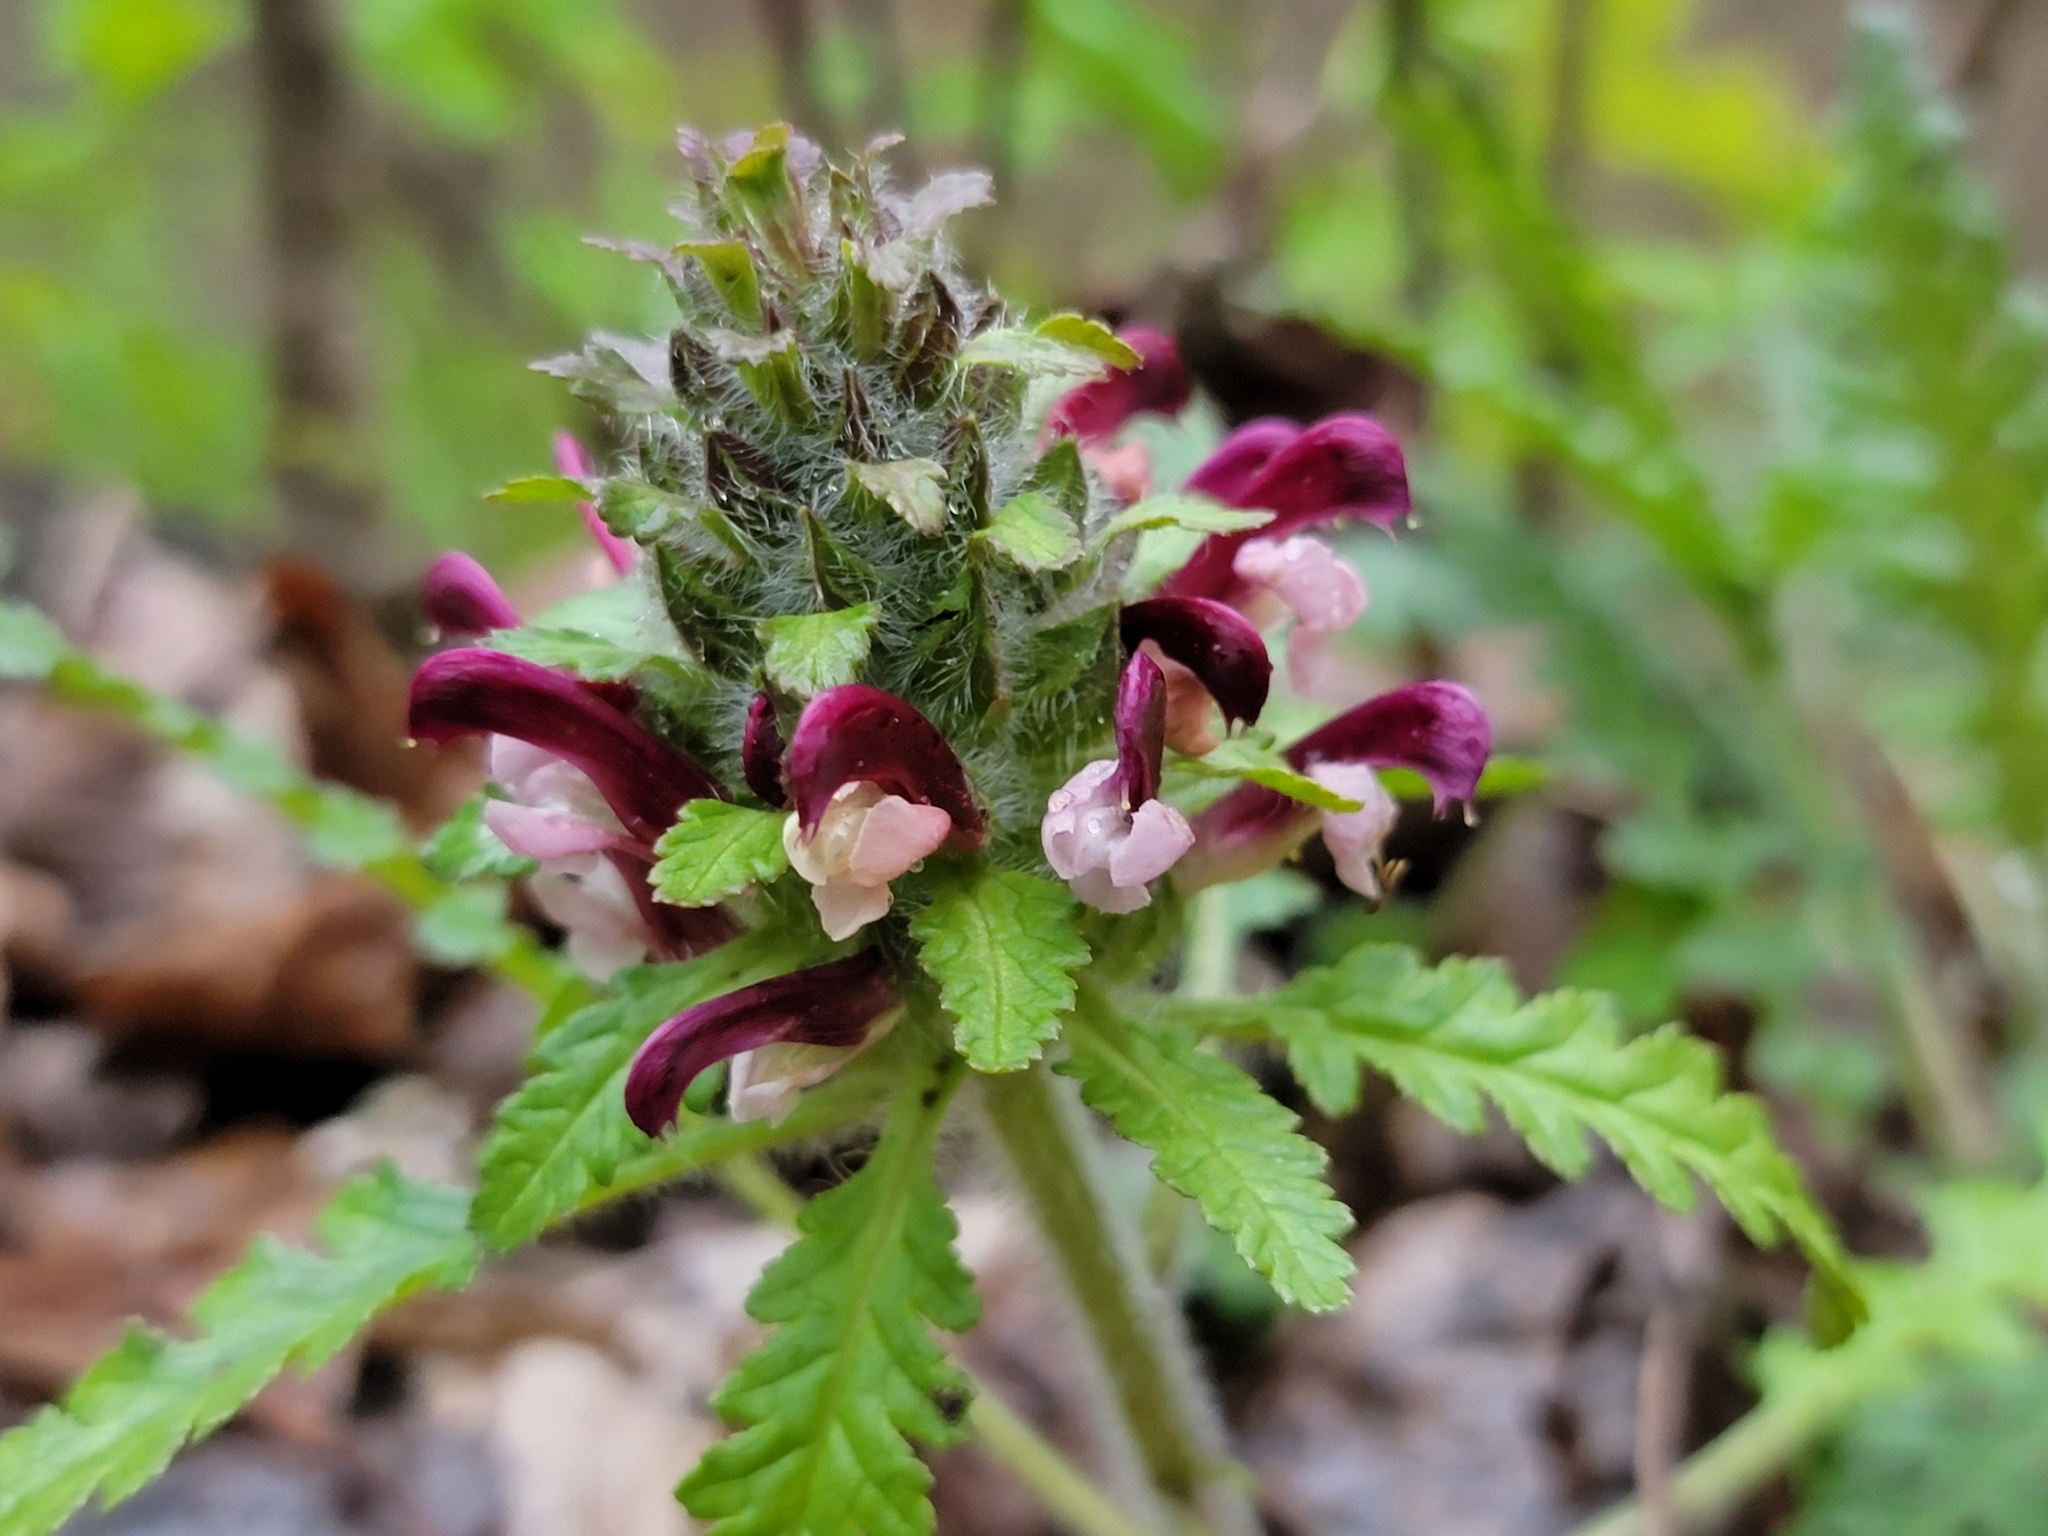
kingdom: Plantae
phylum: Tracheophyta
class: Magnoliopsida
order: Lamiales
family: Orobanchaceae
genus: Pedicularis
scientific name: Pedicularis canadensis
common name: Early lousewort
